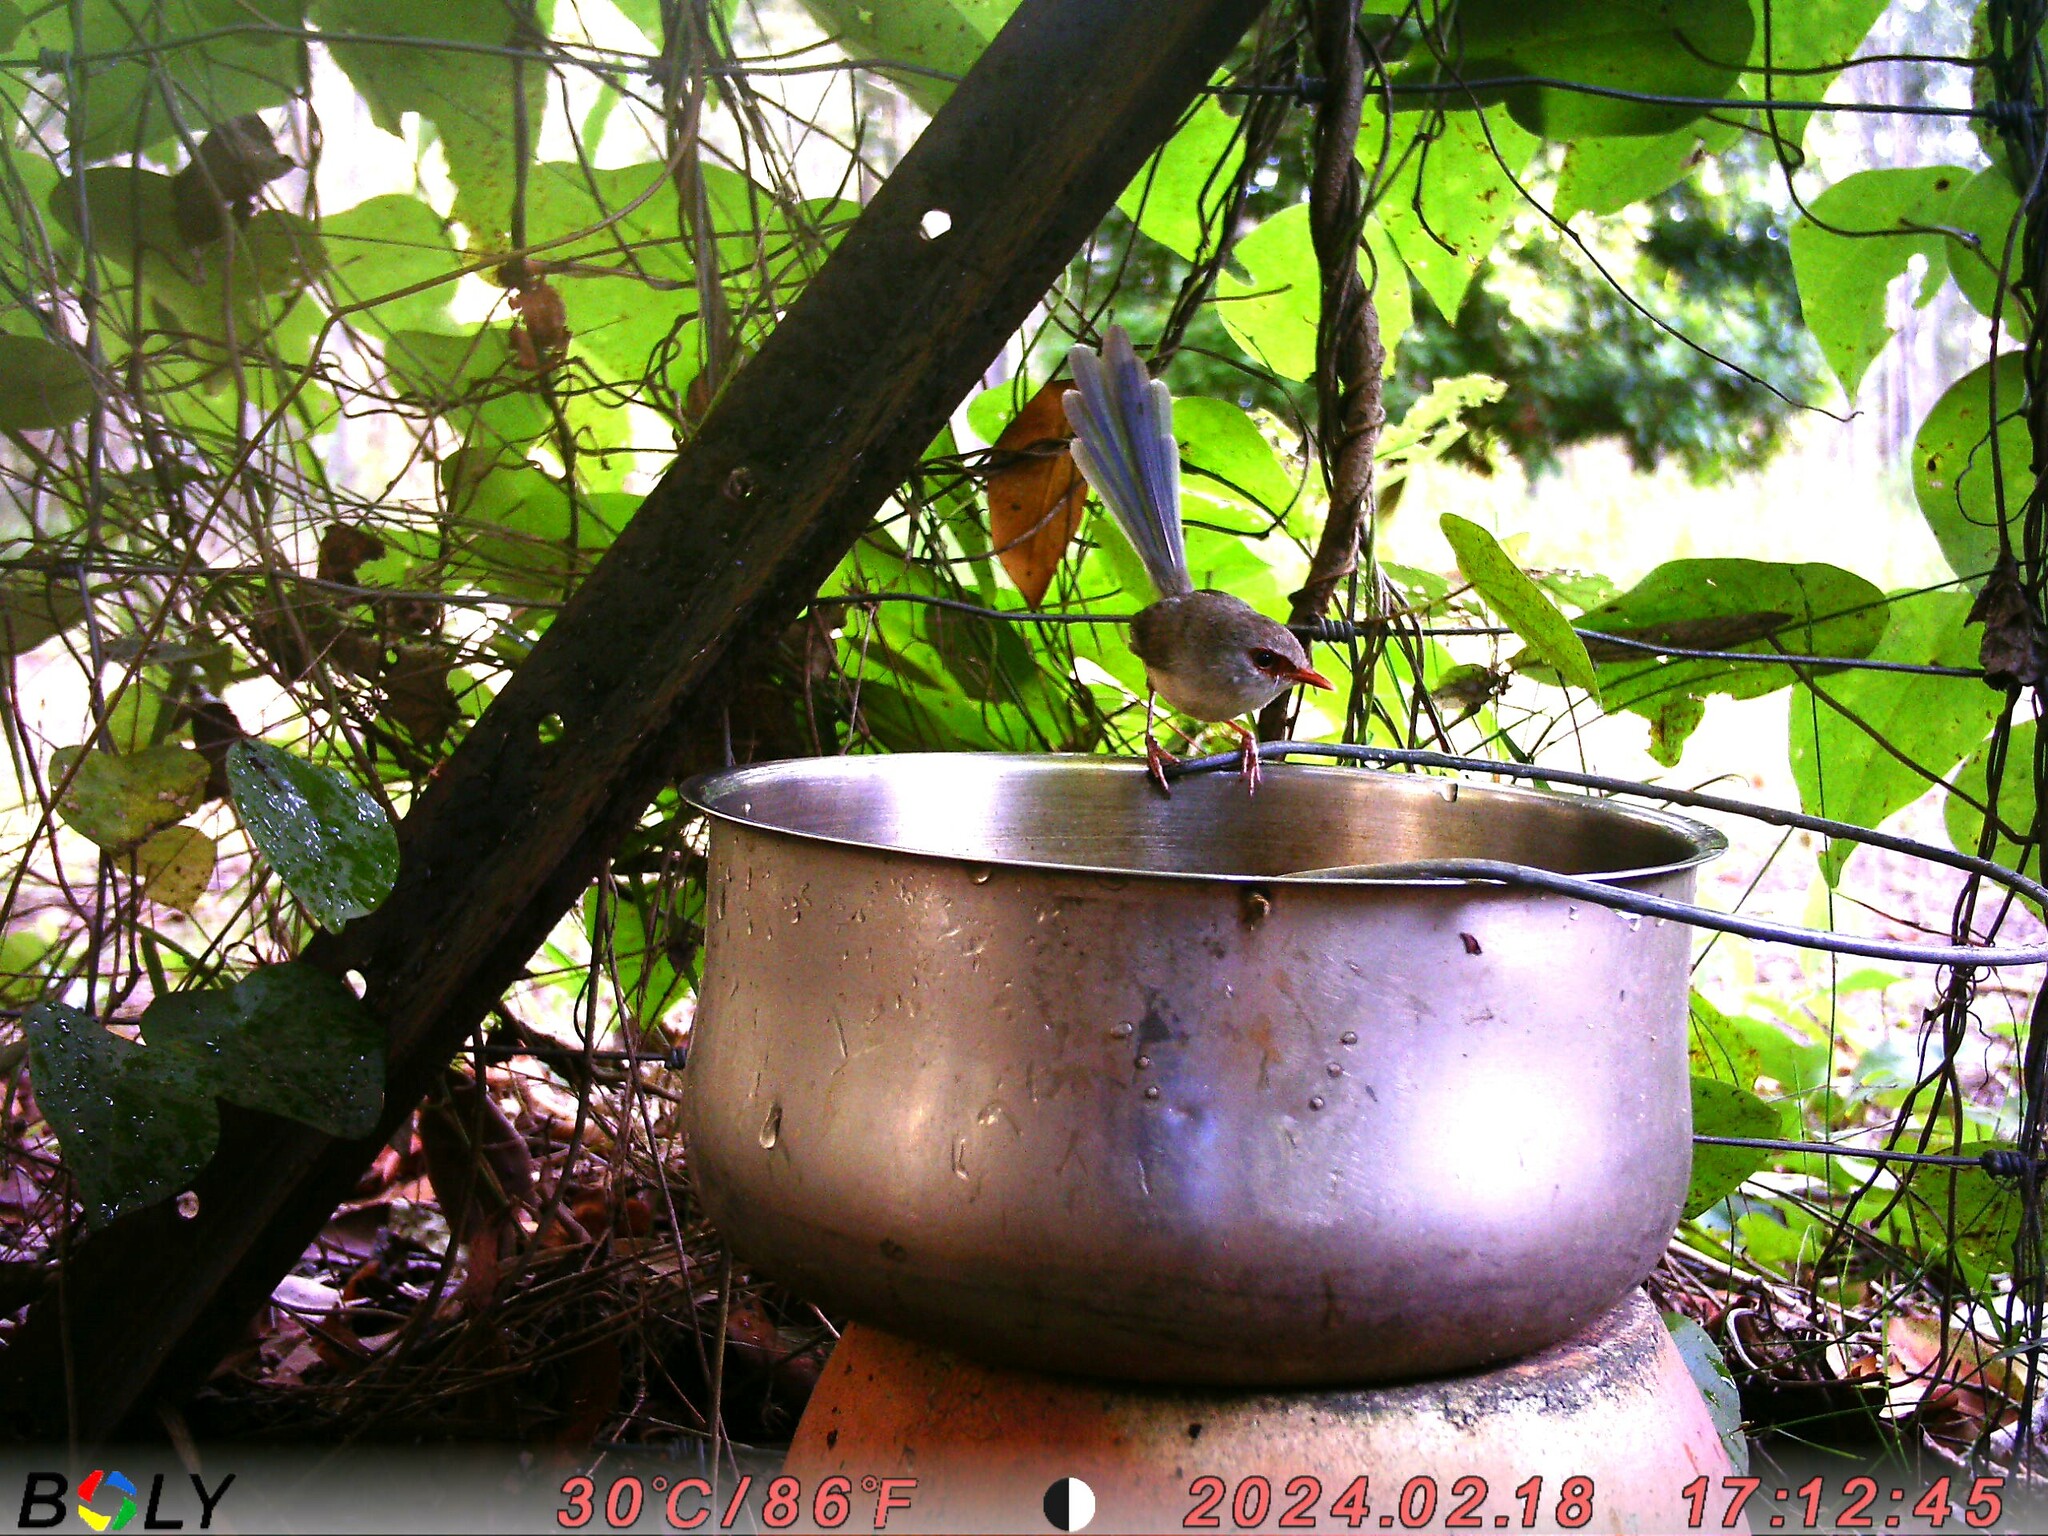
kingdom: Animalia
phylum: Chordata
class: Aves
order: Passeriformes
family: Maluridae
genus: Malurus
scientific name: Malurus lamberti
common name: Variegated fairywren
